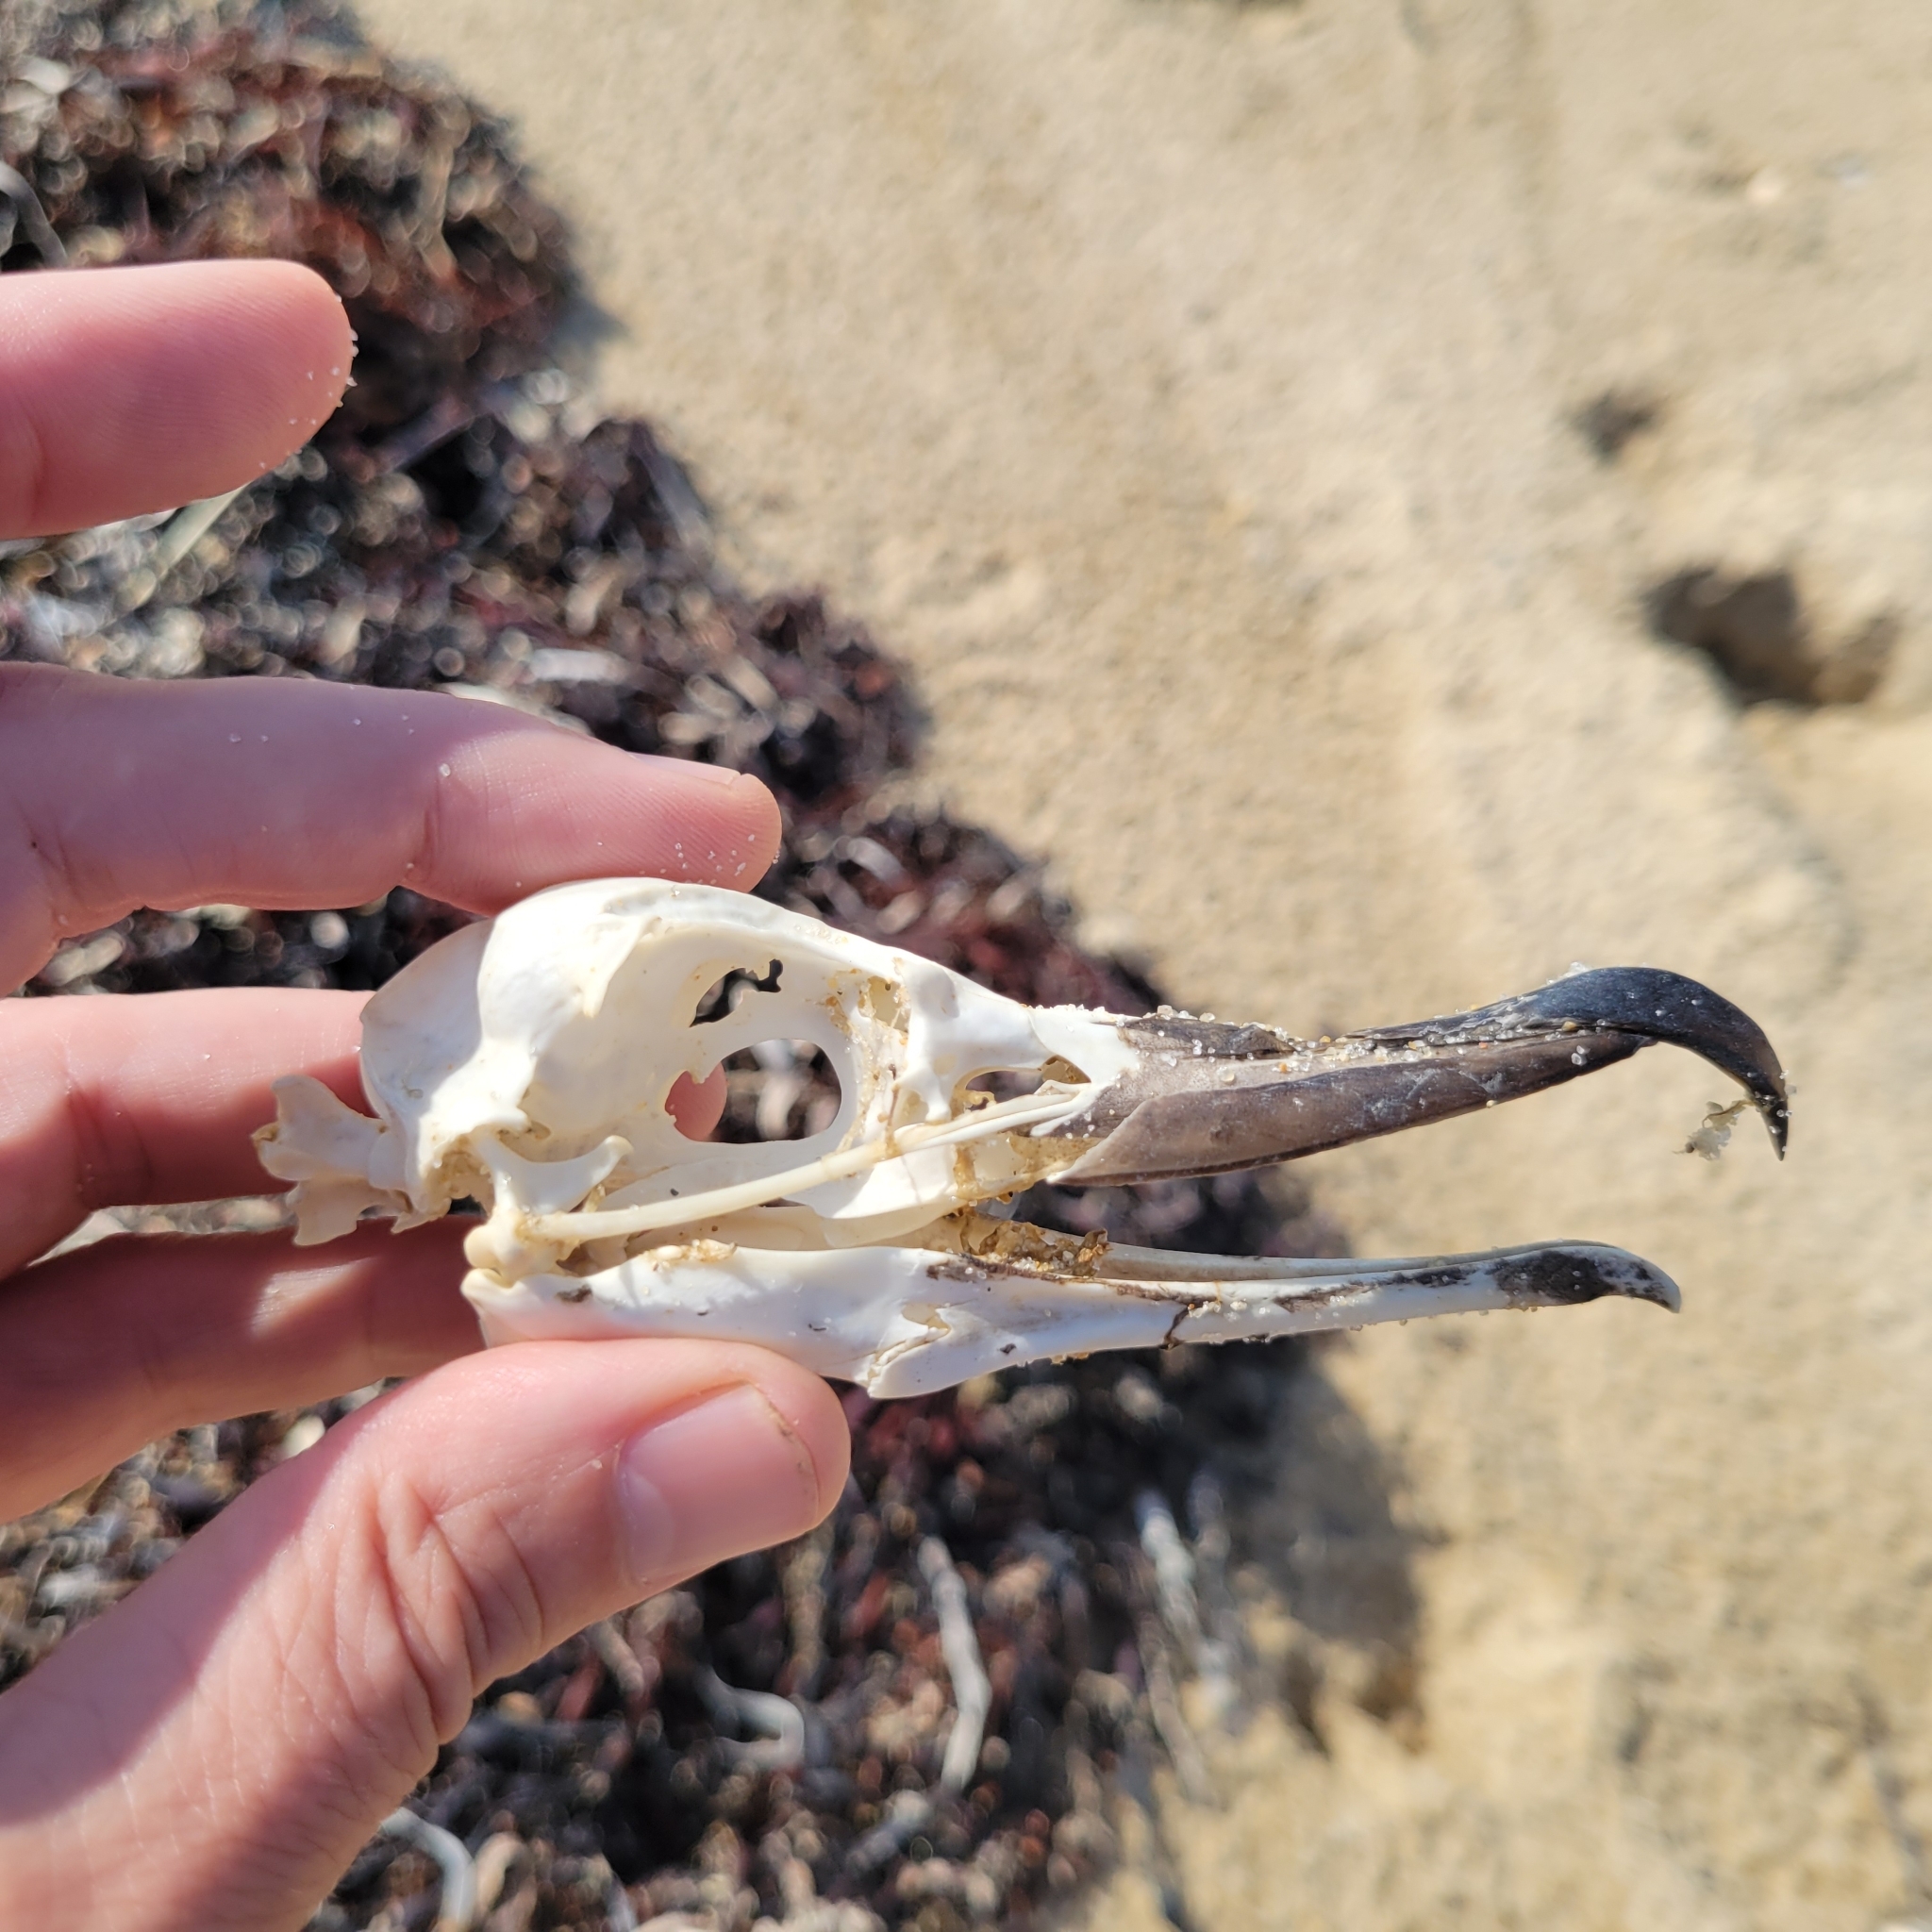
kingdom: Animalia
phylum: Chordata
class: Aves
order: Procellariiformes
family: Procellariidae
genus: Puffinus
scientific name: Puffinus gravis
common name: Great shearwater
